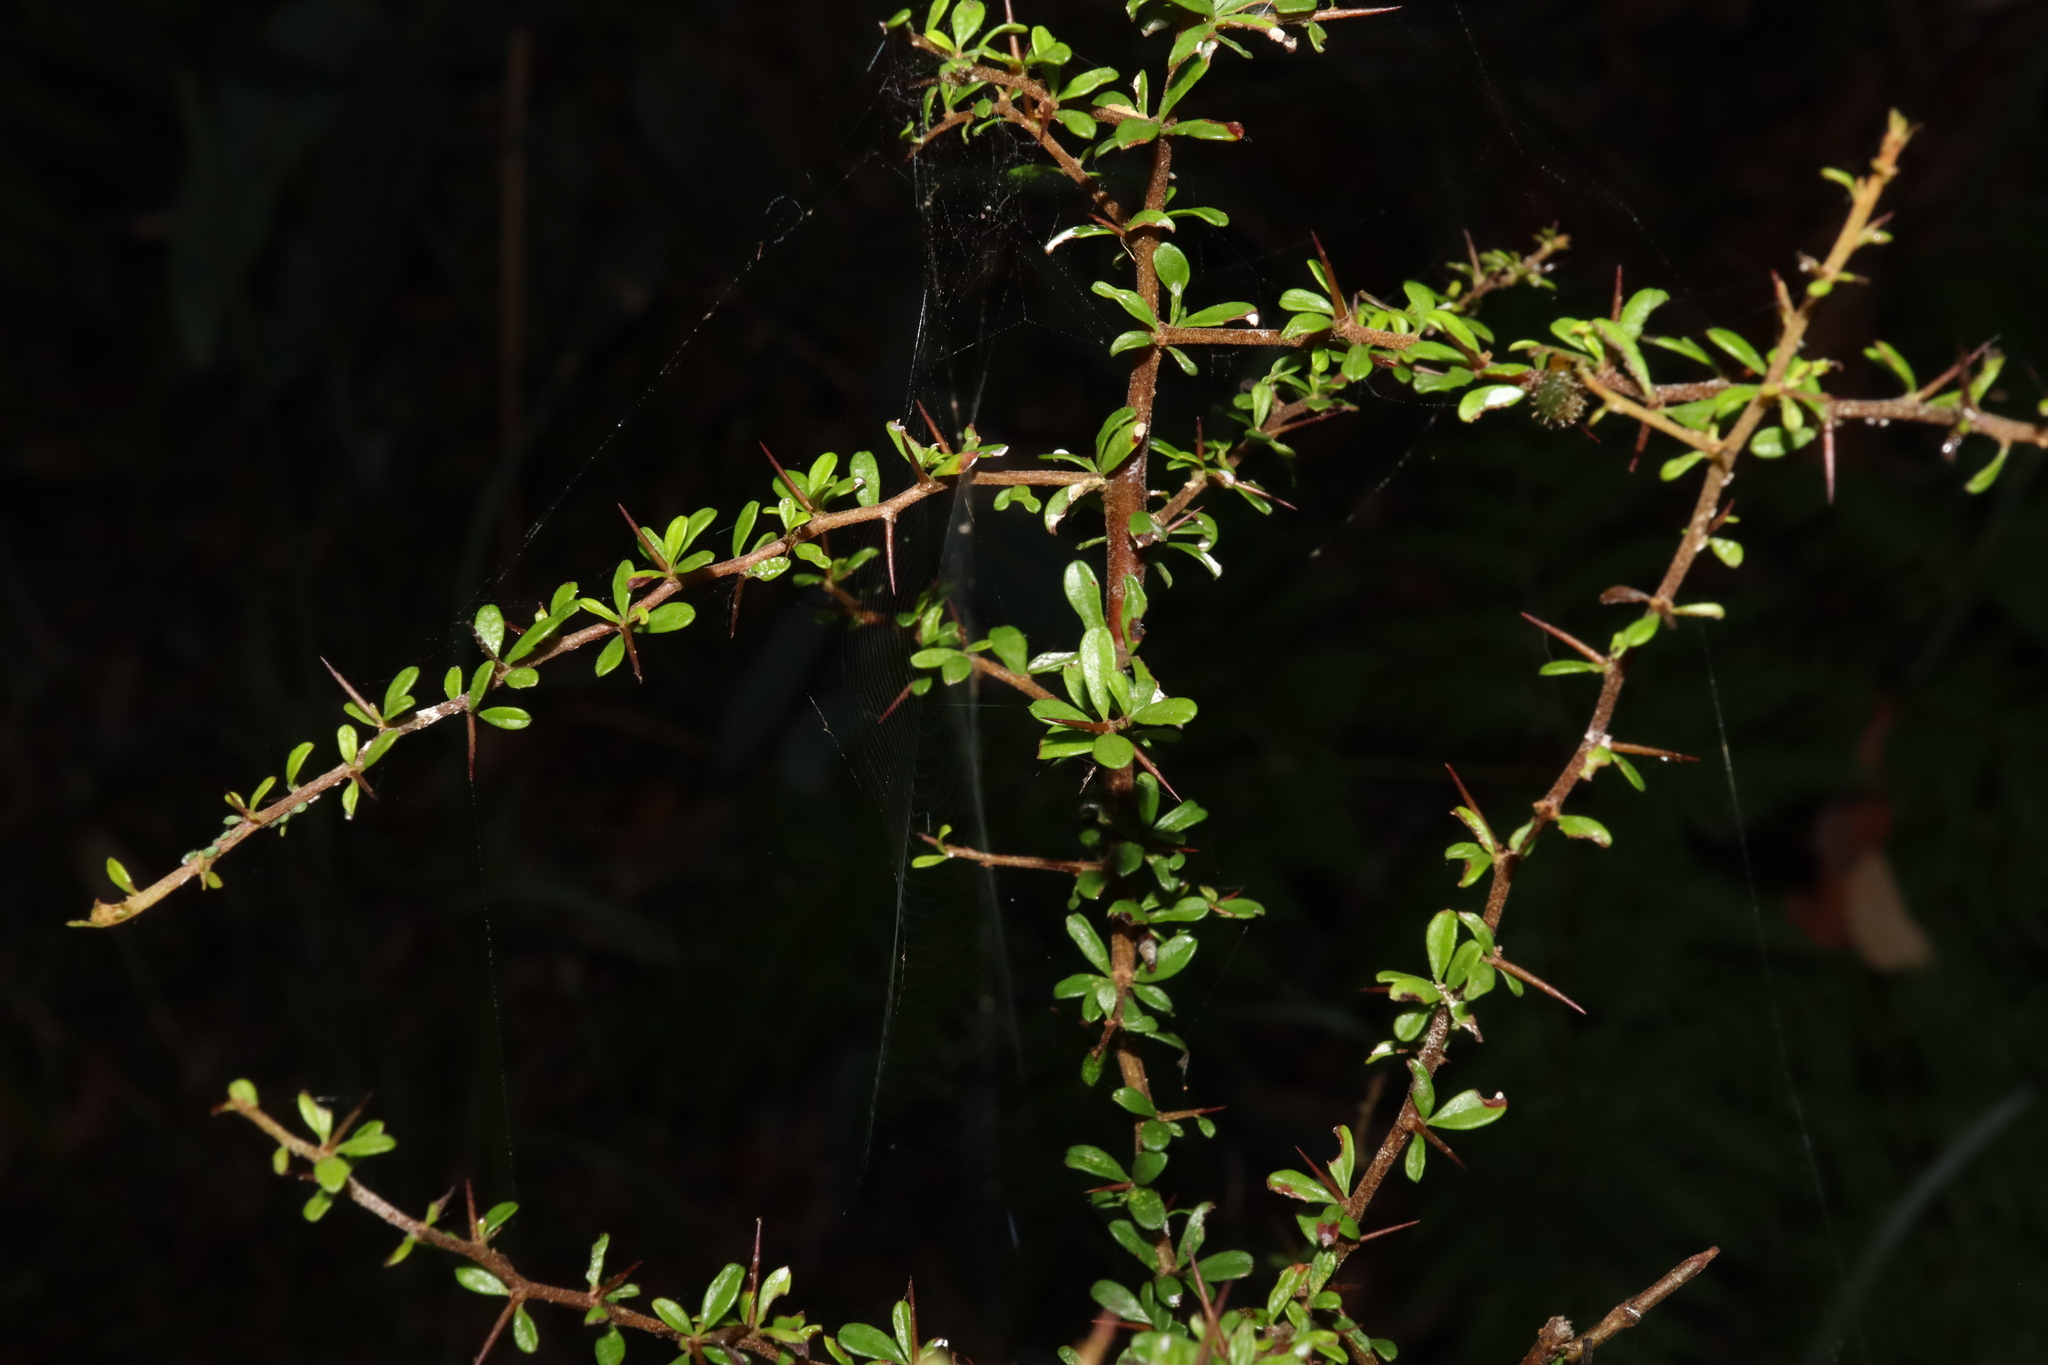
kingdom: Plantae
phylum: Tracheophyta
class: Magnoliopsida
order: Apiales
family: Pittosporaceae
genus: Bursaria
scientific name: Bursaria spinosa
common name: Australian blackthorn
